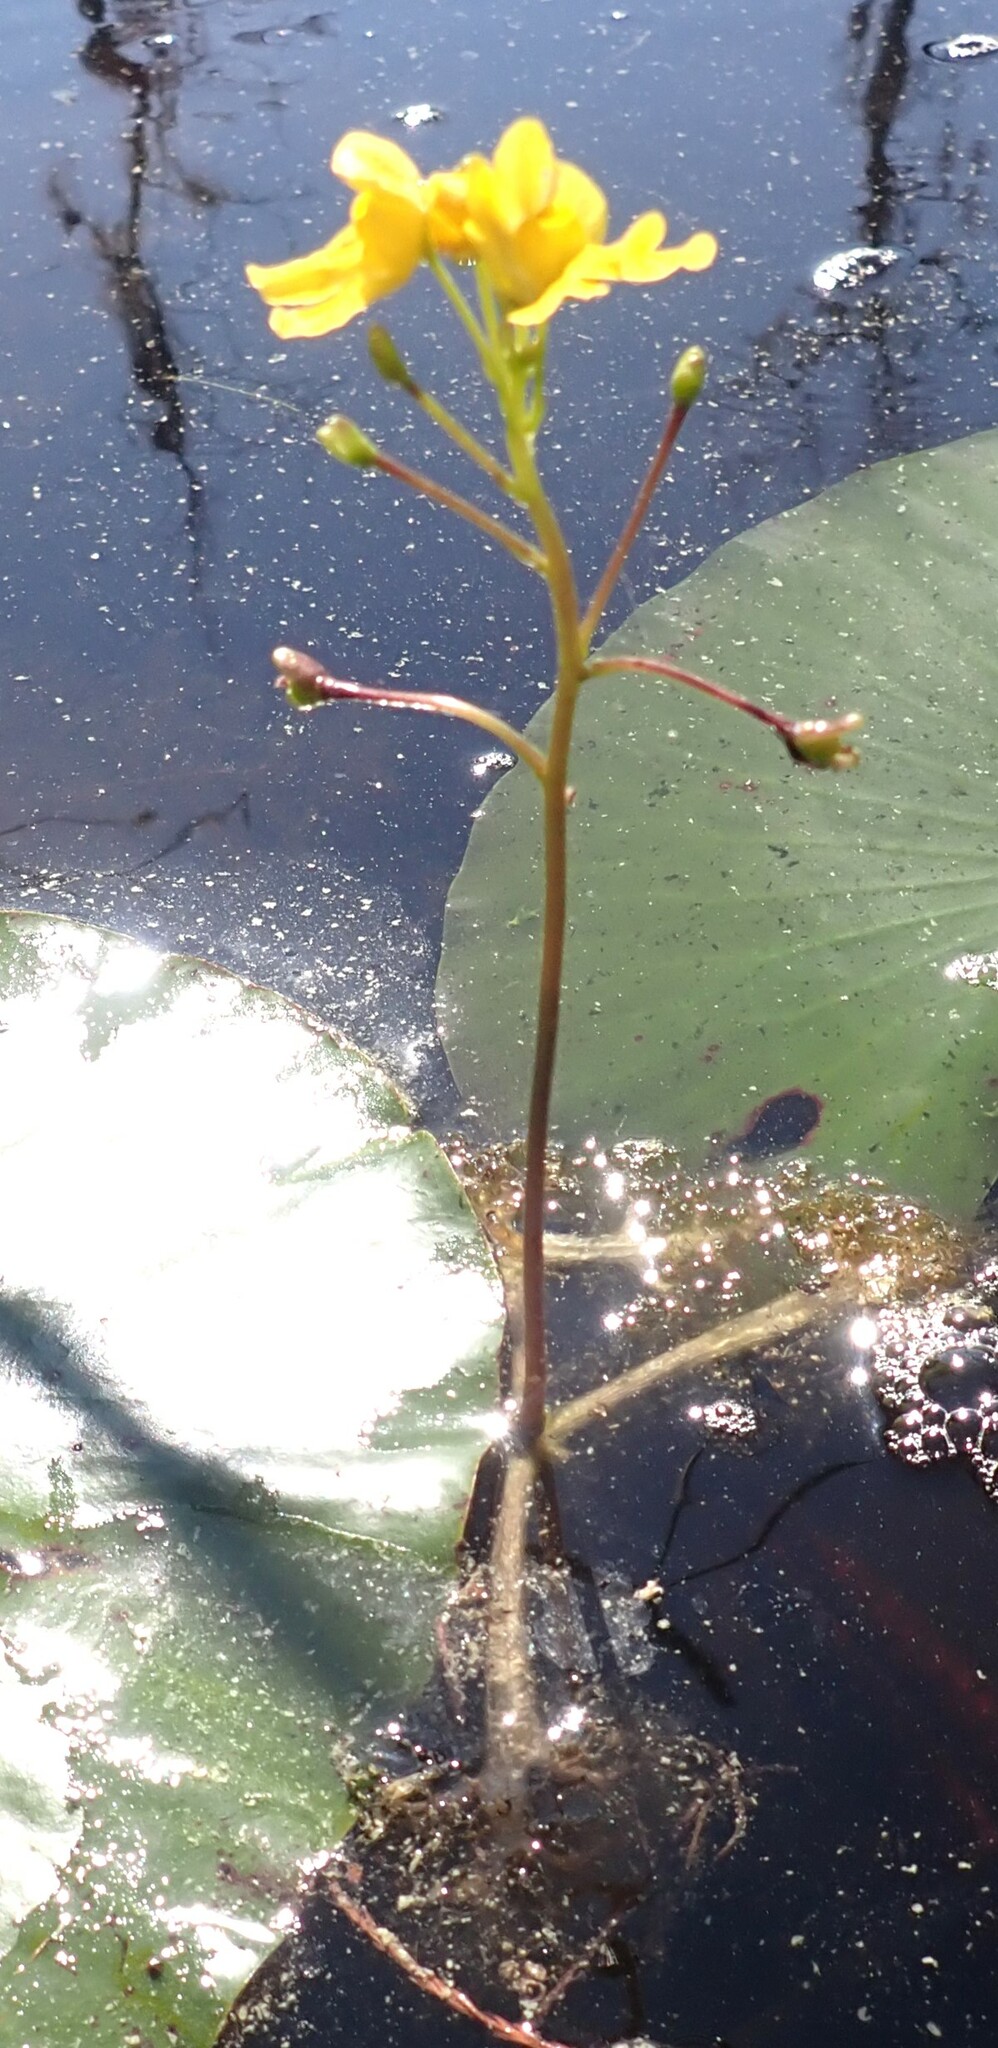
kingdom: Plantae
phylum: Tracheophyta
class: Magnoliopsida
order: Lamiales
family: Lentibulariaceae
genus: Utricularia
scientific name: Utricularia inflata
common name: Floating bladderwort
